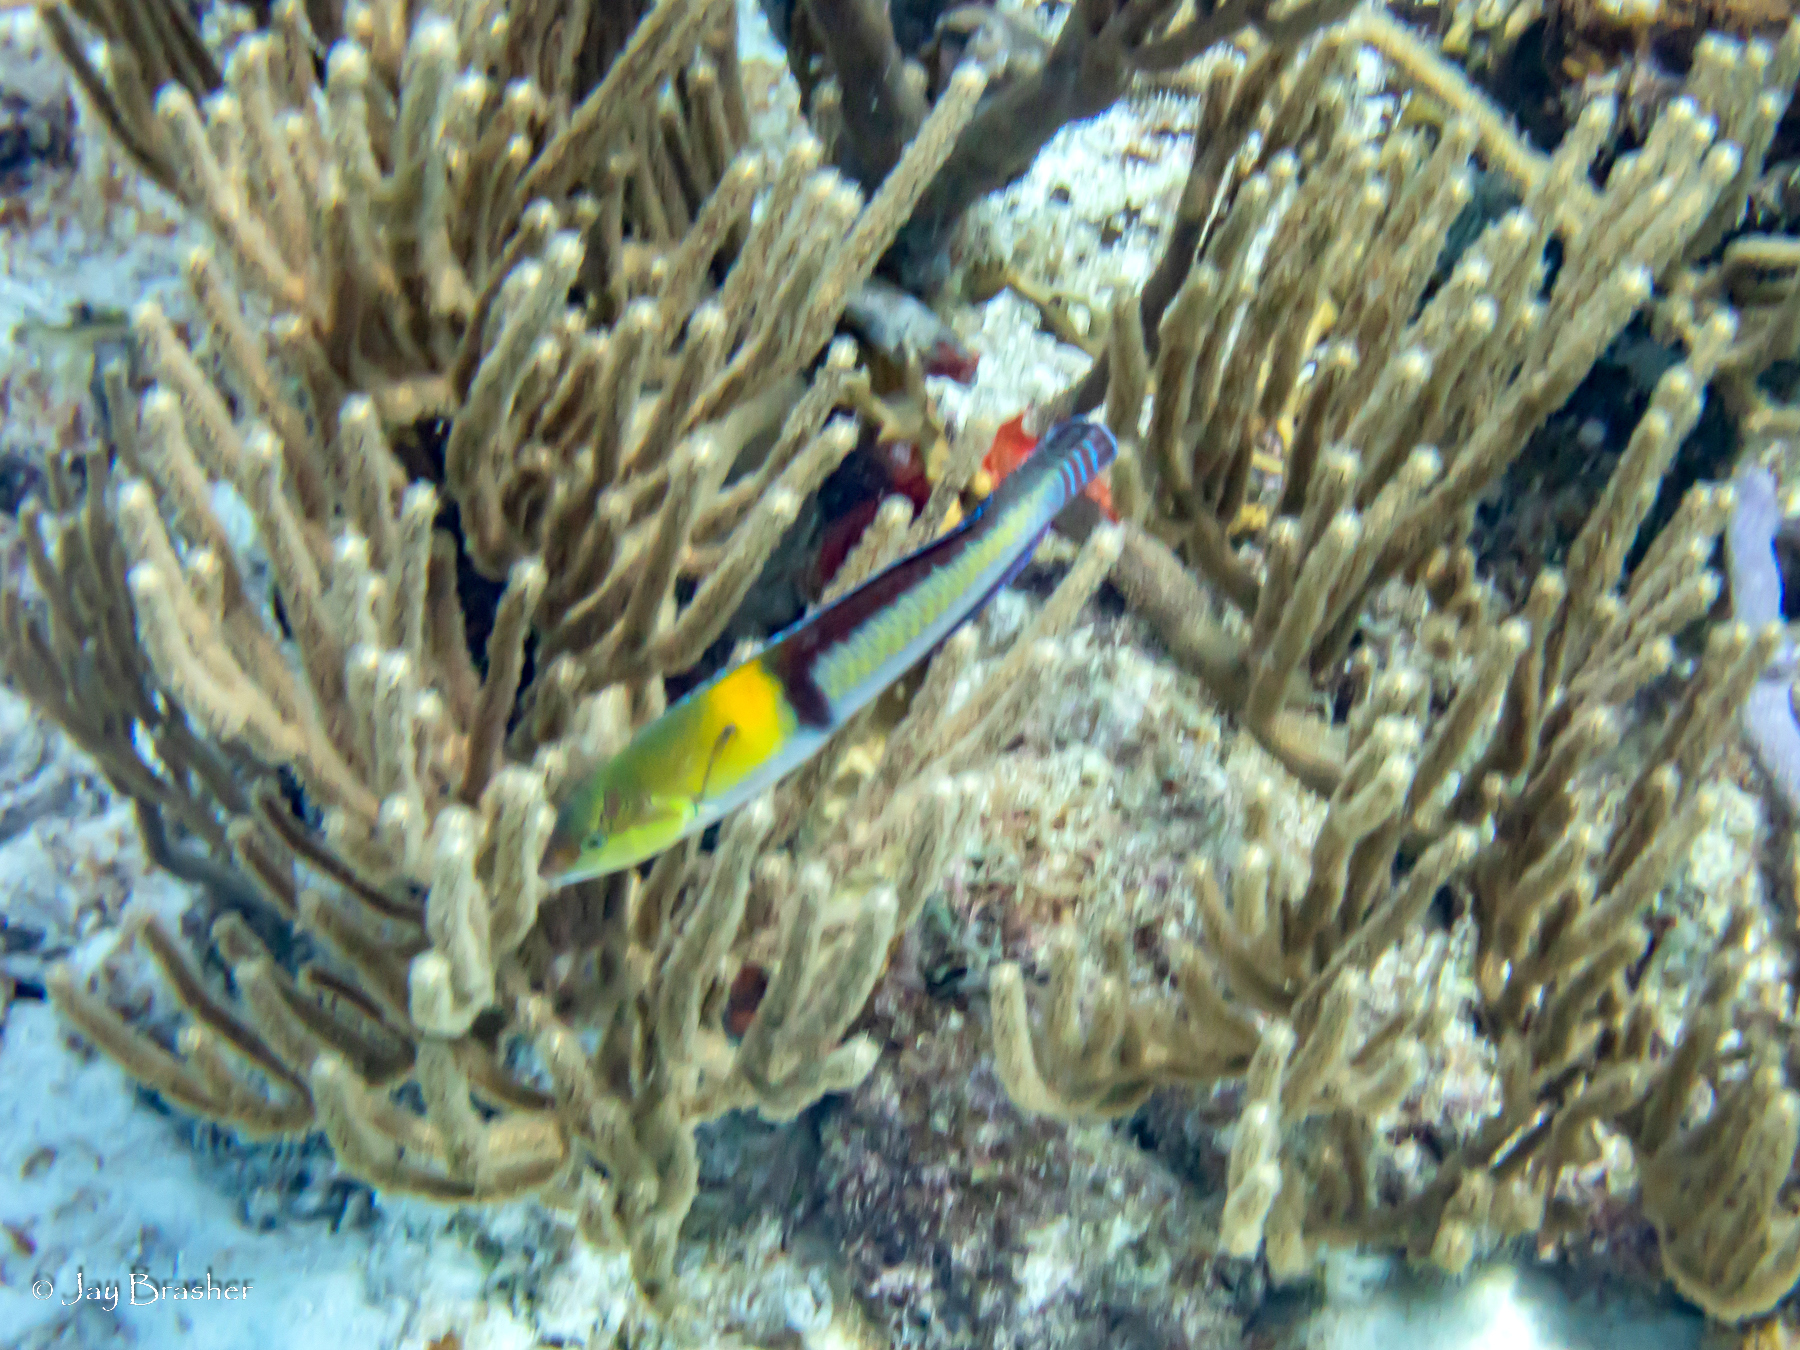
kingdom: Animalia
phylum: Chordata
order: Perciformes
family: Labridae
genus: Halichoeres
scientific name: Halichoeres garnoti
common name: Yellowhead wrasse
